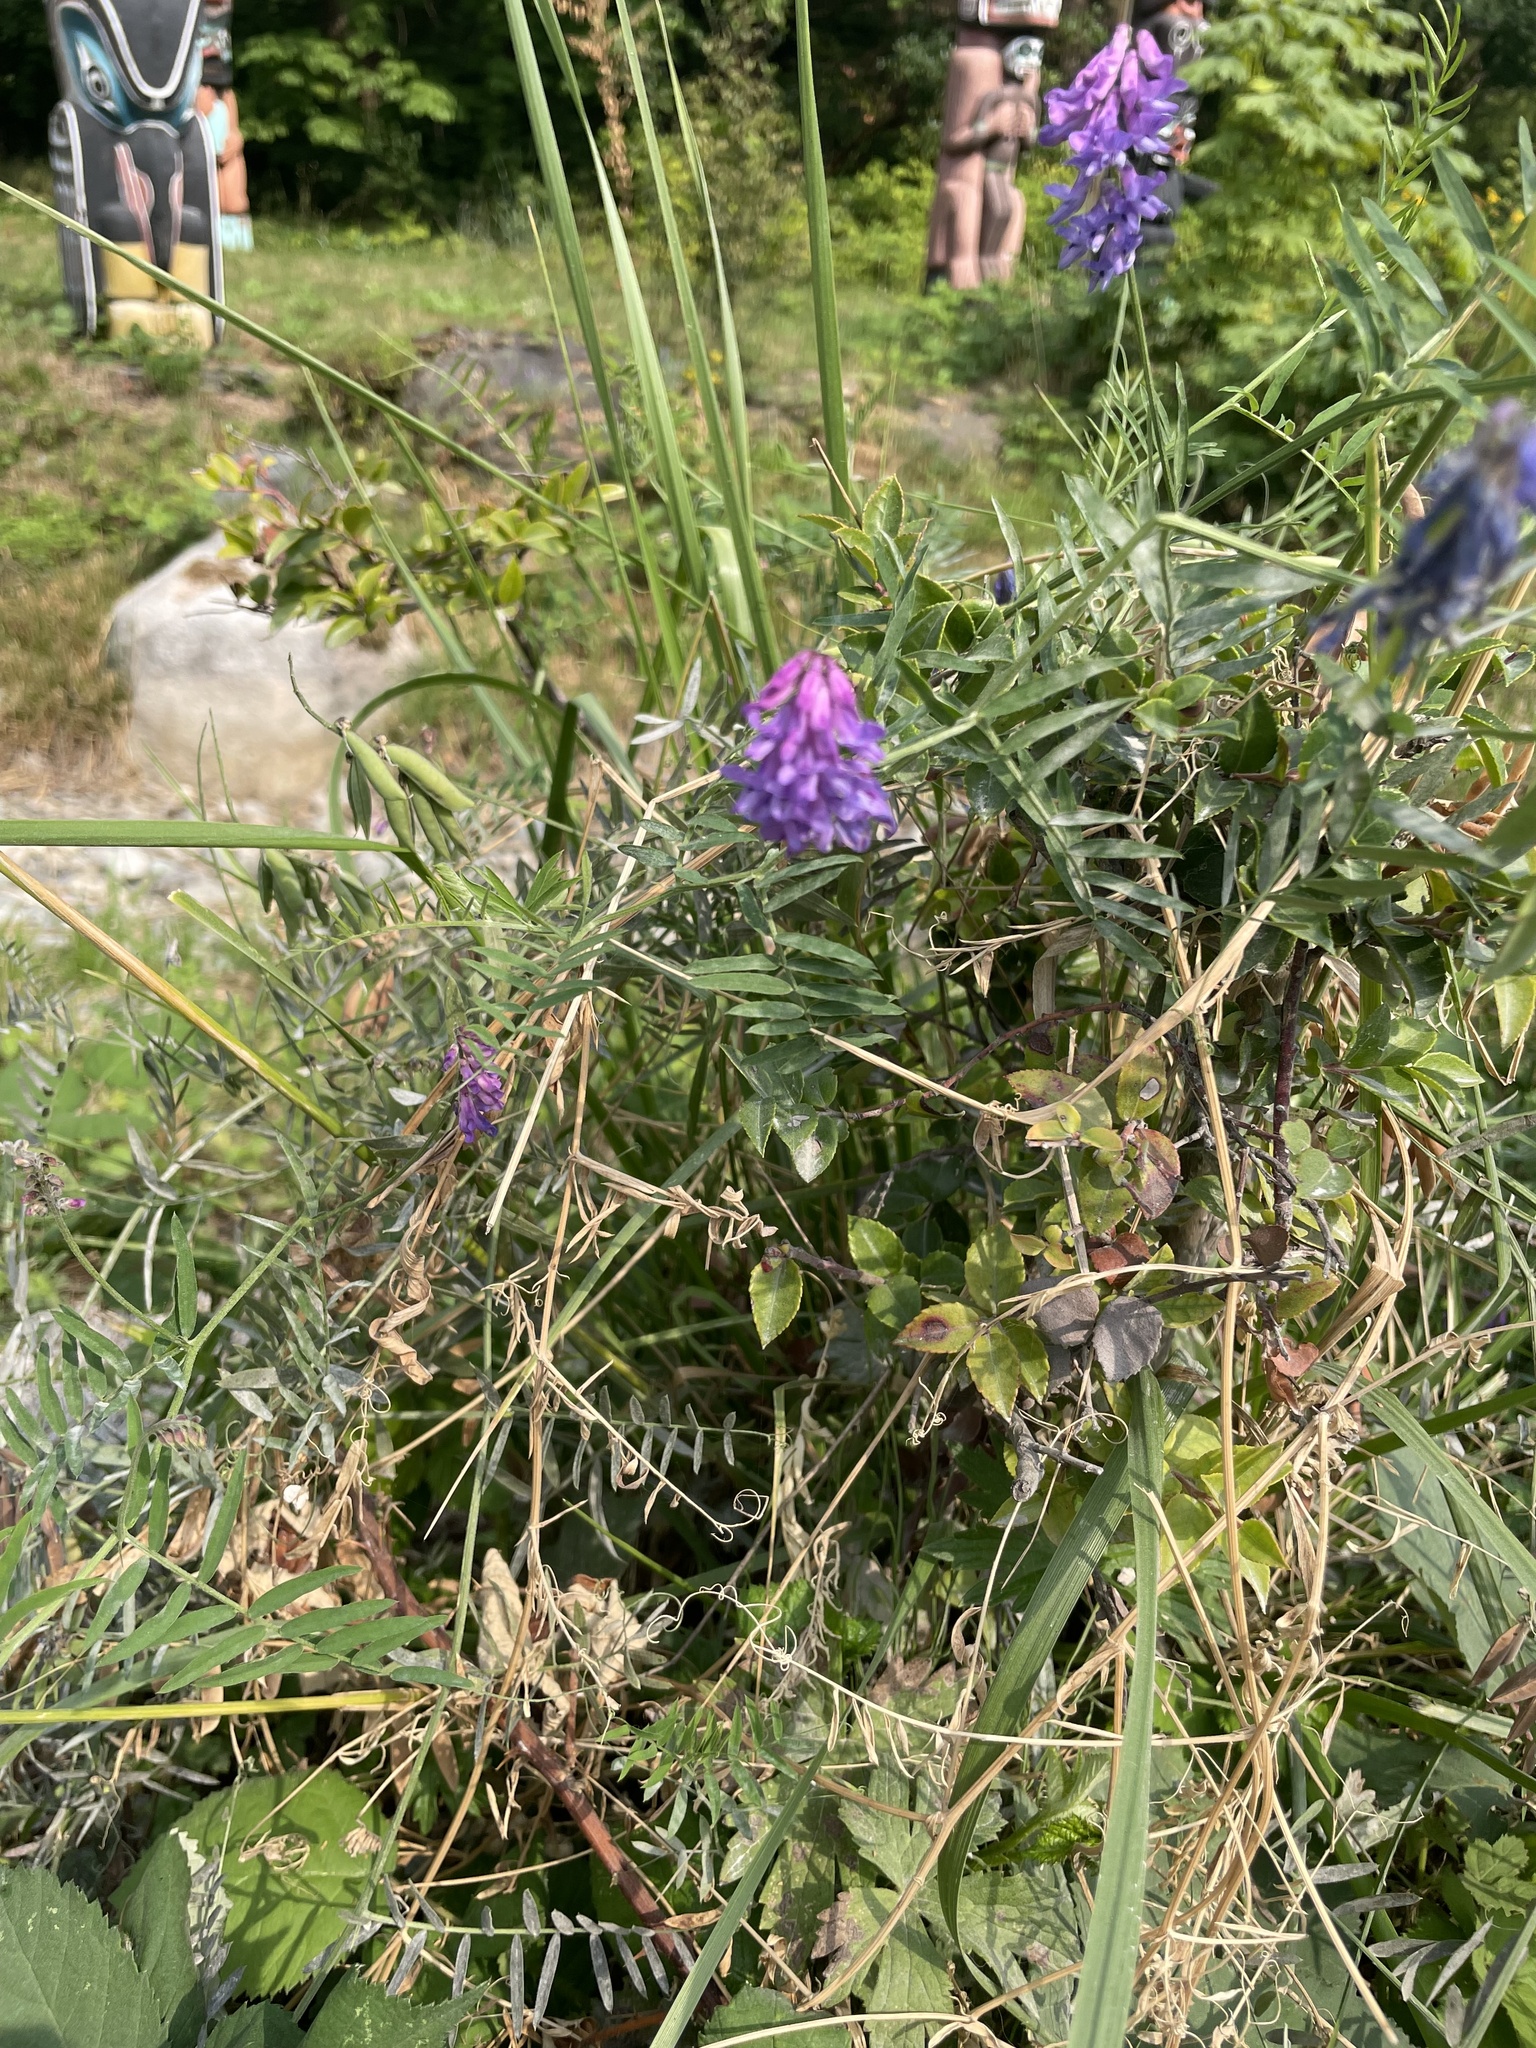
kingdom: Plantae
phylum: Tracheophyta
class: Magnoliopsida
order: Fabales
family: Fabaceae
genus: Vicia
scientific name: Vicia cracca
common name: Bird vetch
